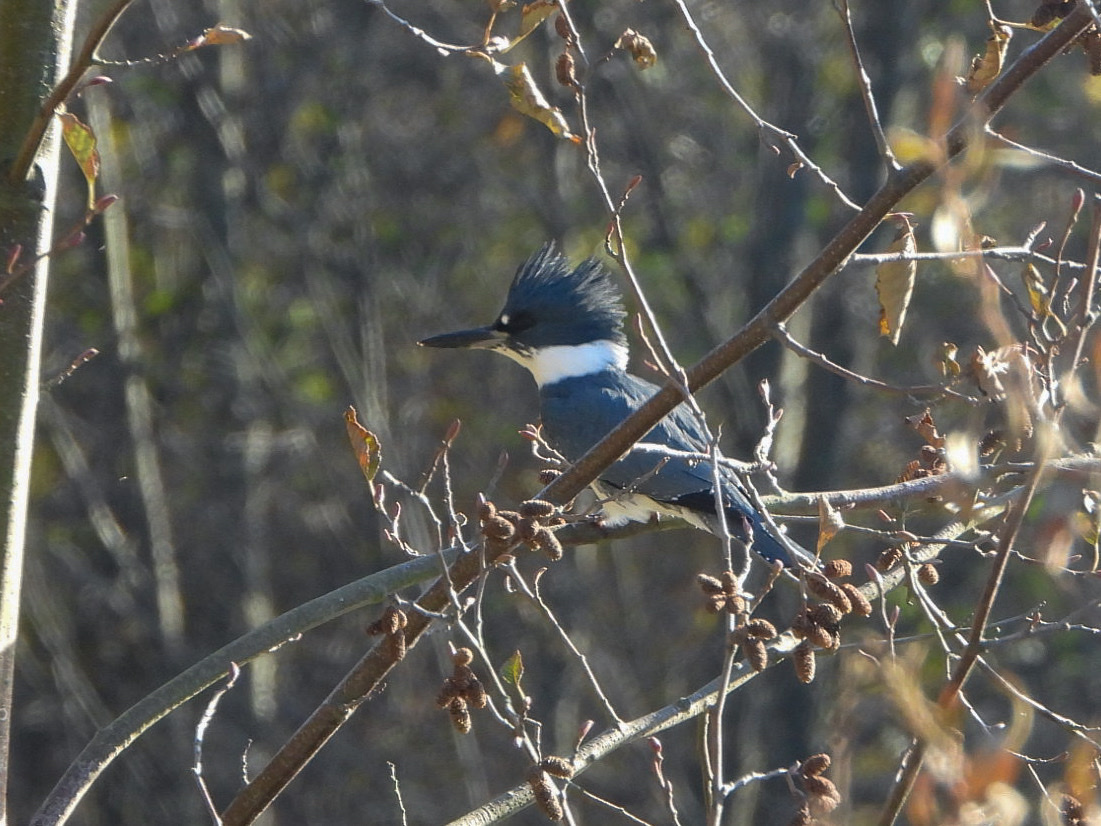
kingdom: Animalia
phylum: Chordata
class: Aves
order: Coraciiformes
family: Alcedinidae
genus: Megaceryle
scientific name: Megaceryle alcyon
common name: Belted kingfisher
